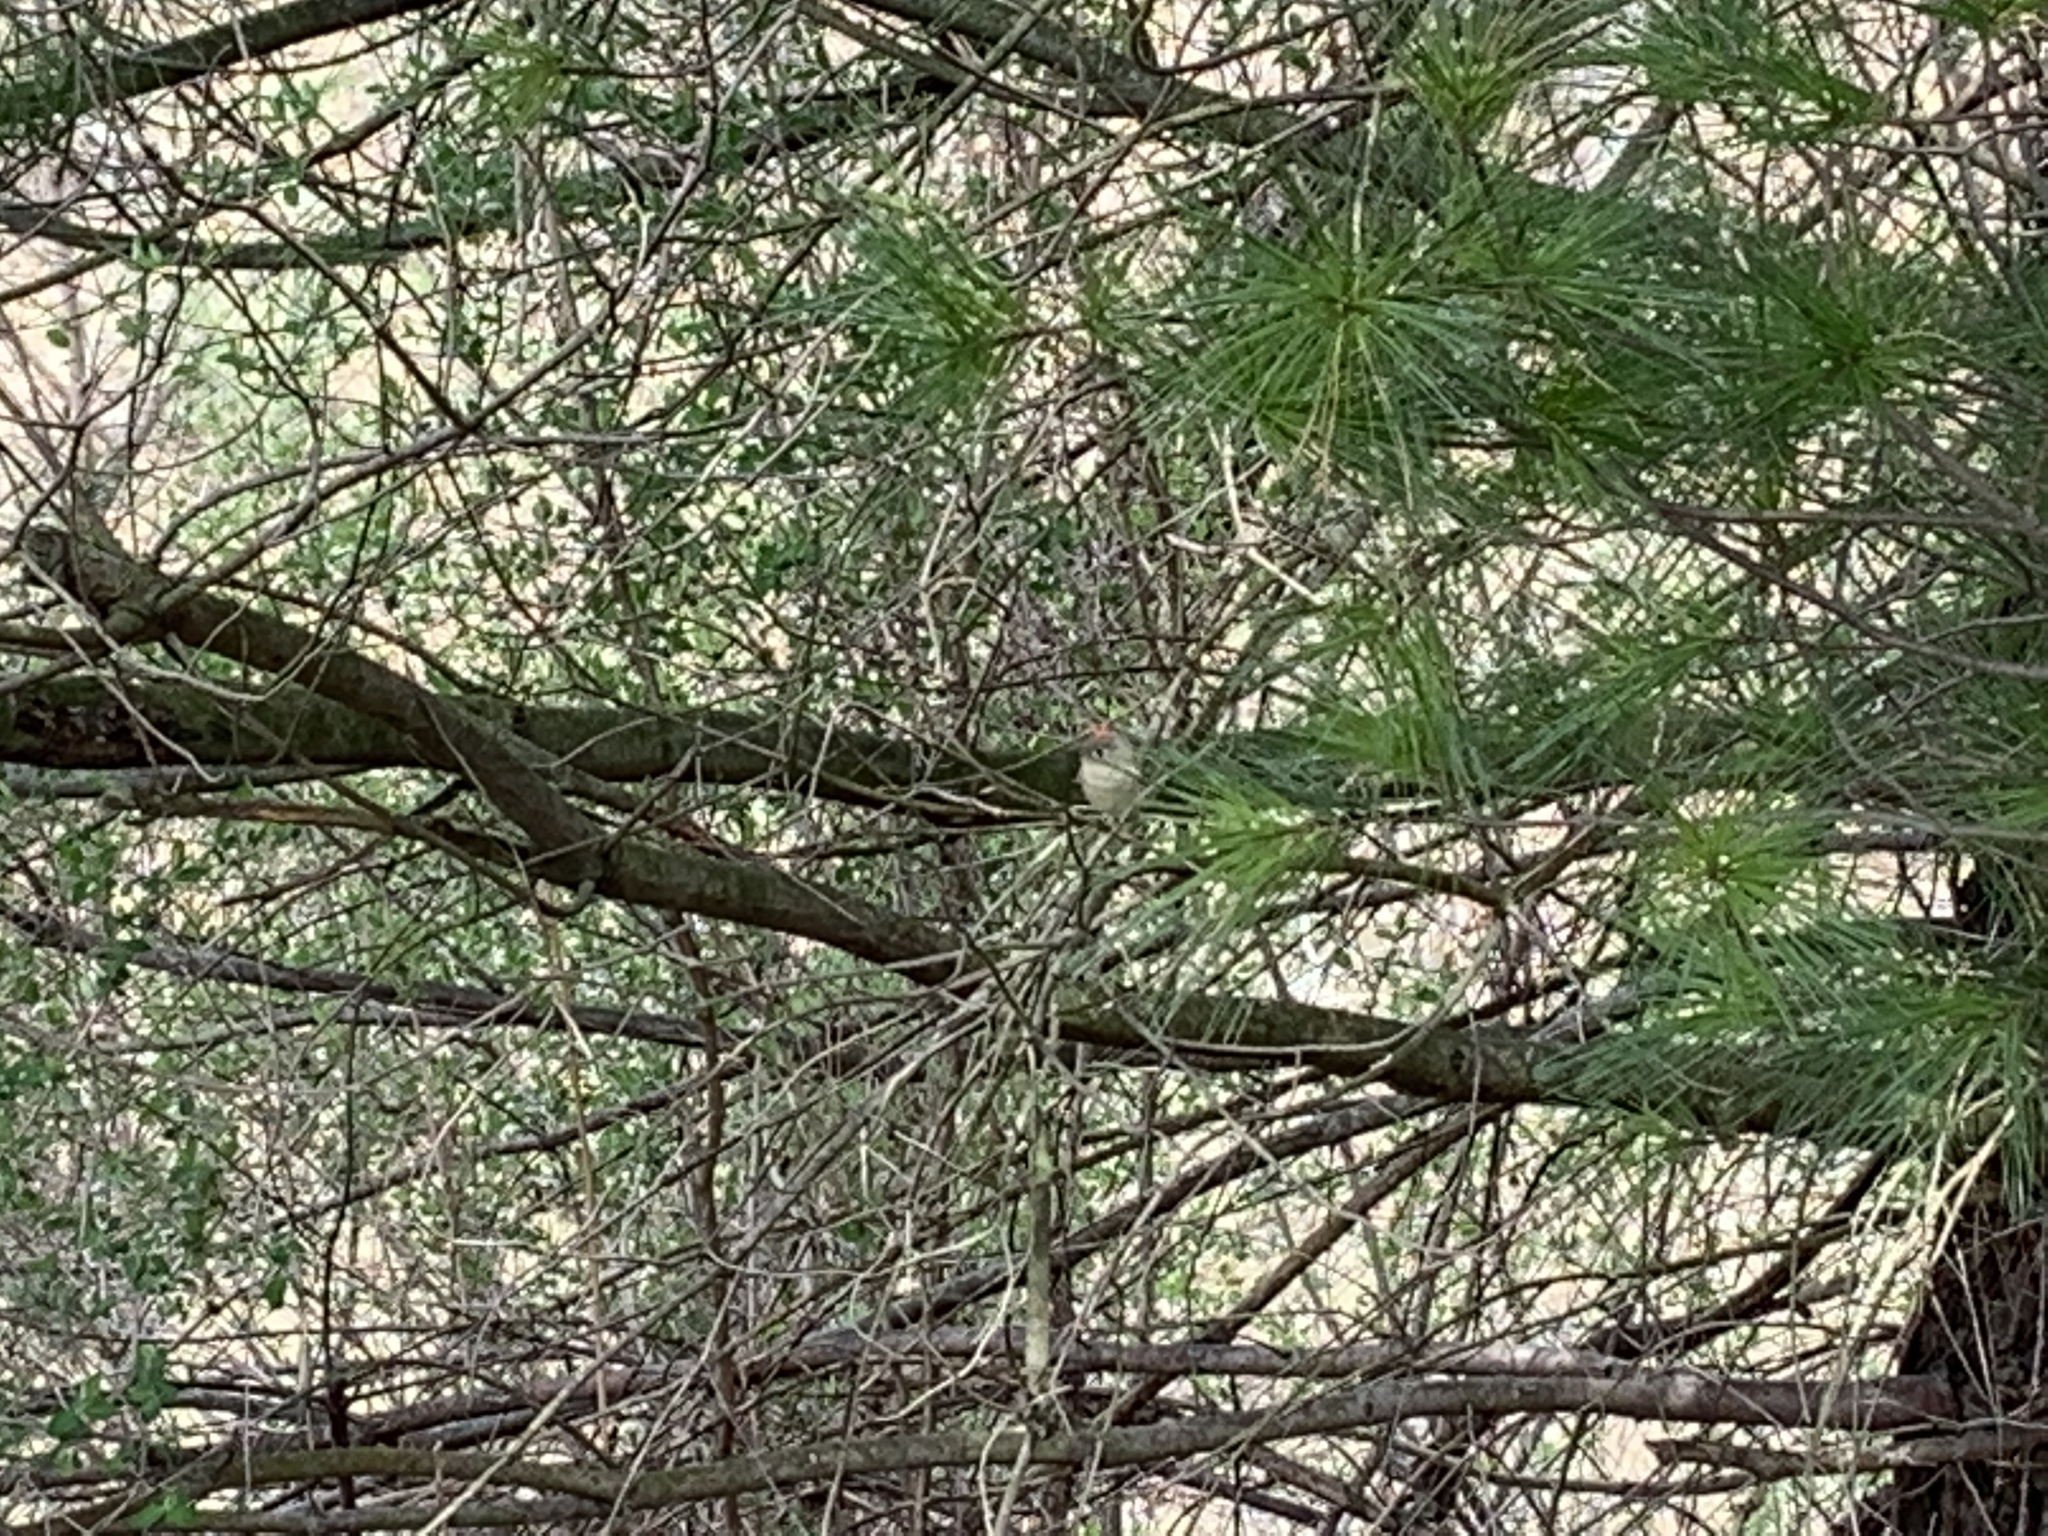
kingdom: Animalia
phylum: Chordata
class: Aves
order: Passeriformes
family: Regulidae
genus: Regulus
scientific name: Regulus calendula
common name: Ruby-crowned kinglet
